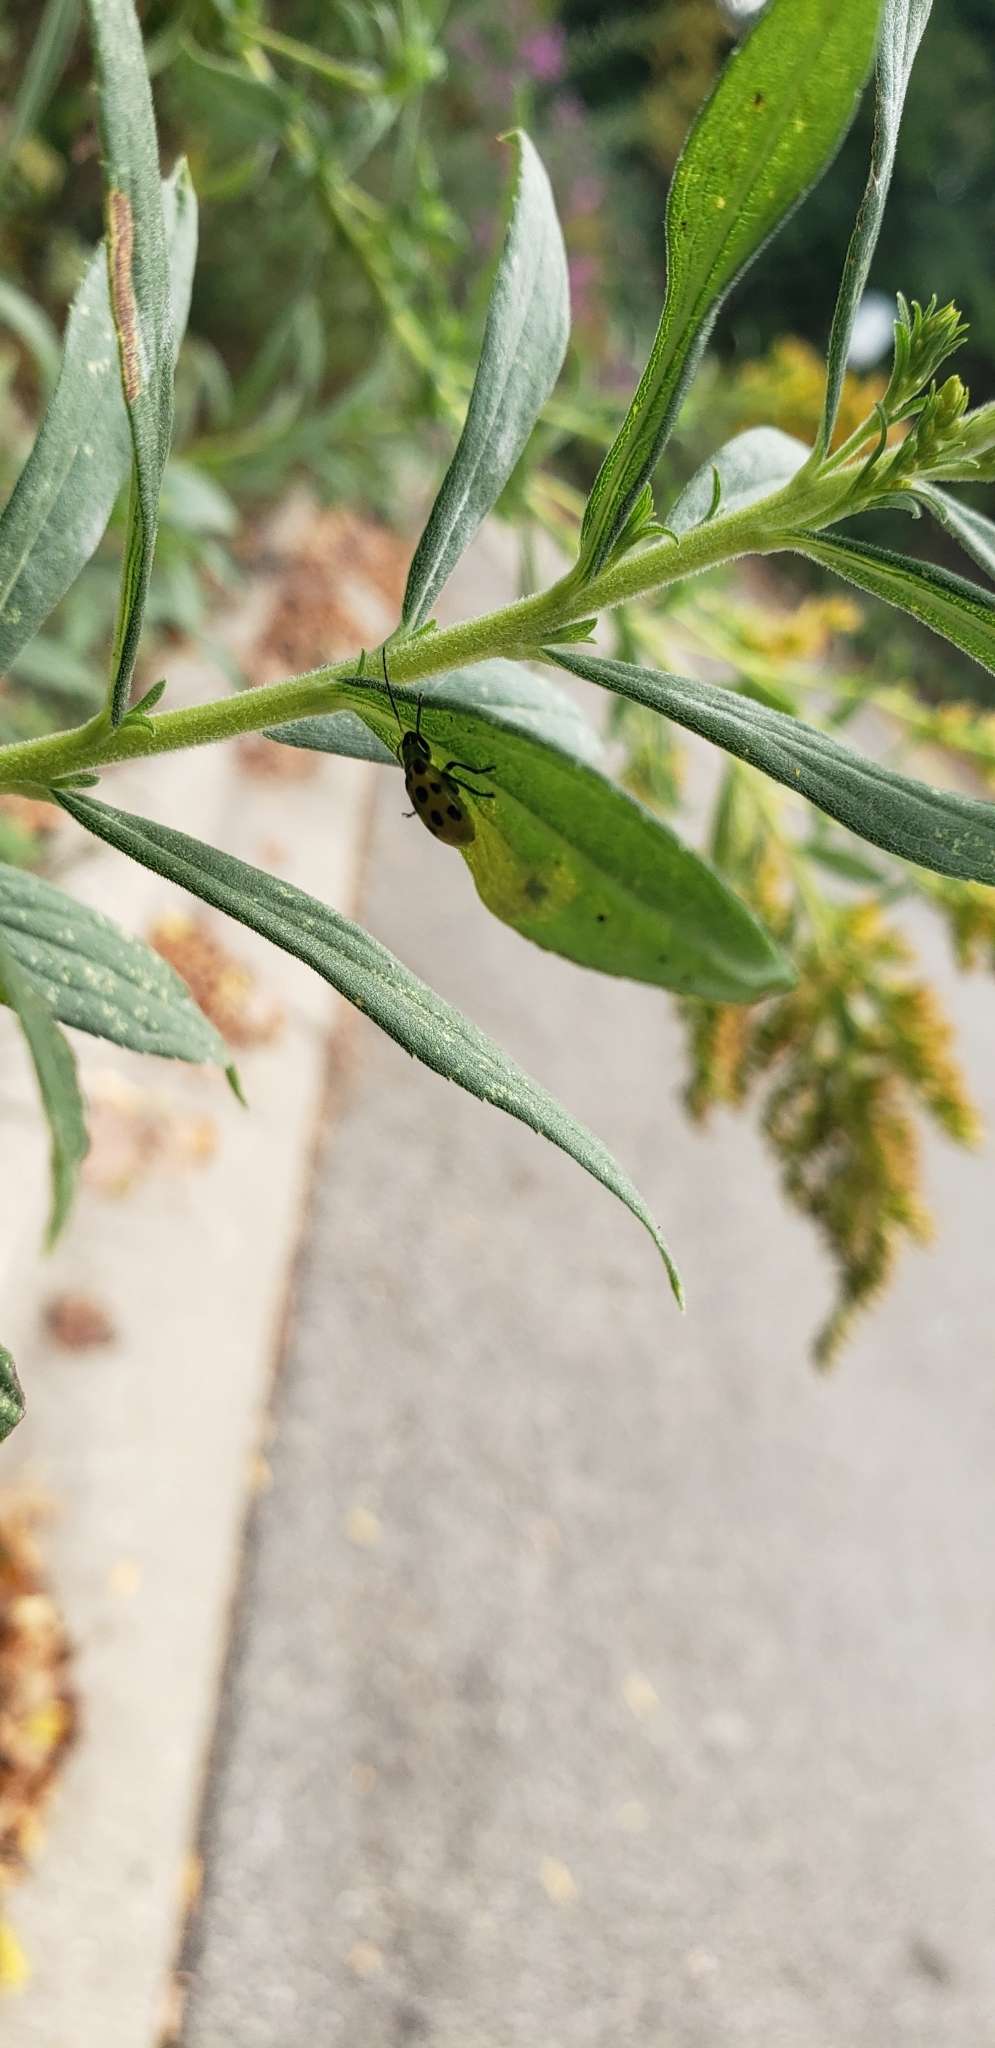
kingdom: Animalia
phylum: Arthropoda
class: Insecta
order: Coleoptera
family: Chrysomelidae
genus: Diabrotica
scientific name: Diabrotica undecimpunctata
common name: Spotted cucumber beetle
